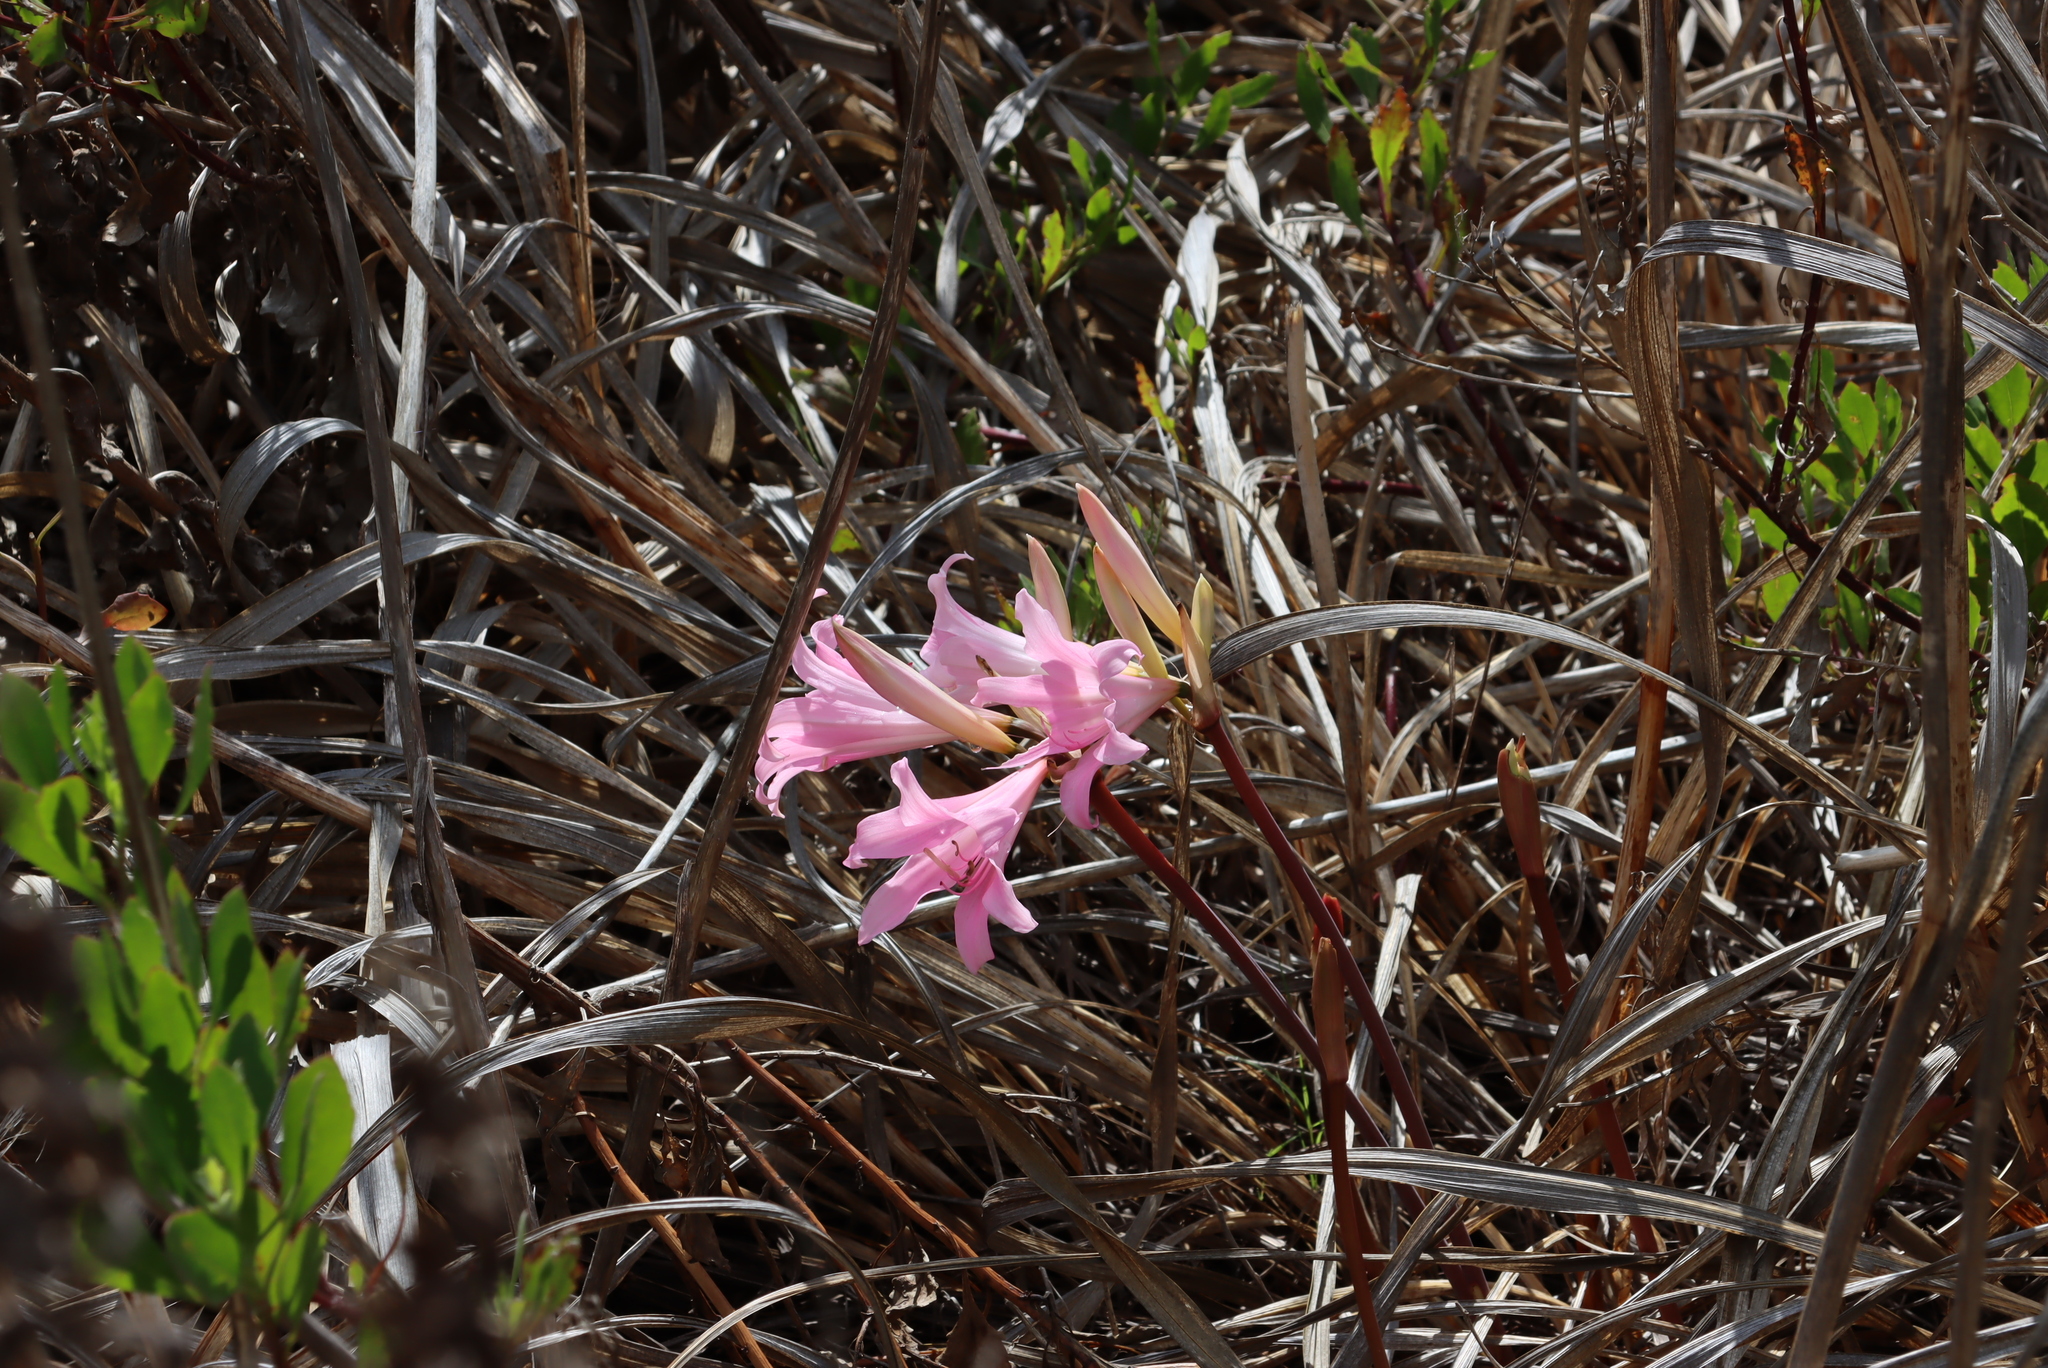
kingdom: Plantae
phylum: Tracheophyta
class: Liliopsida
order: Asparagales
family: Amaryllidaceae
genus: Amaryllis
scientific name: Amaryllis belladonna
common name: Jersey lily
